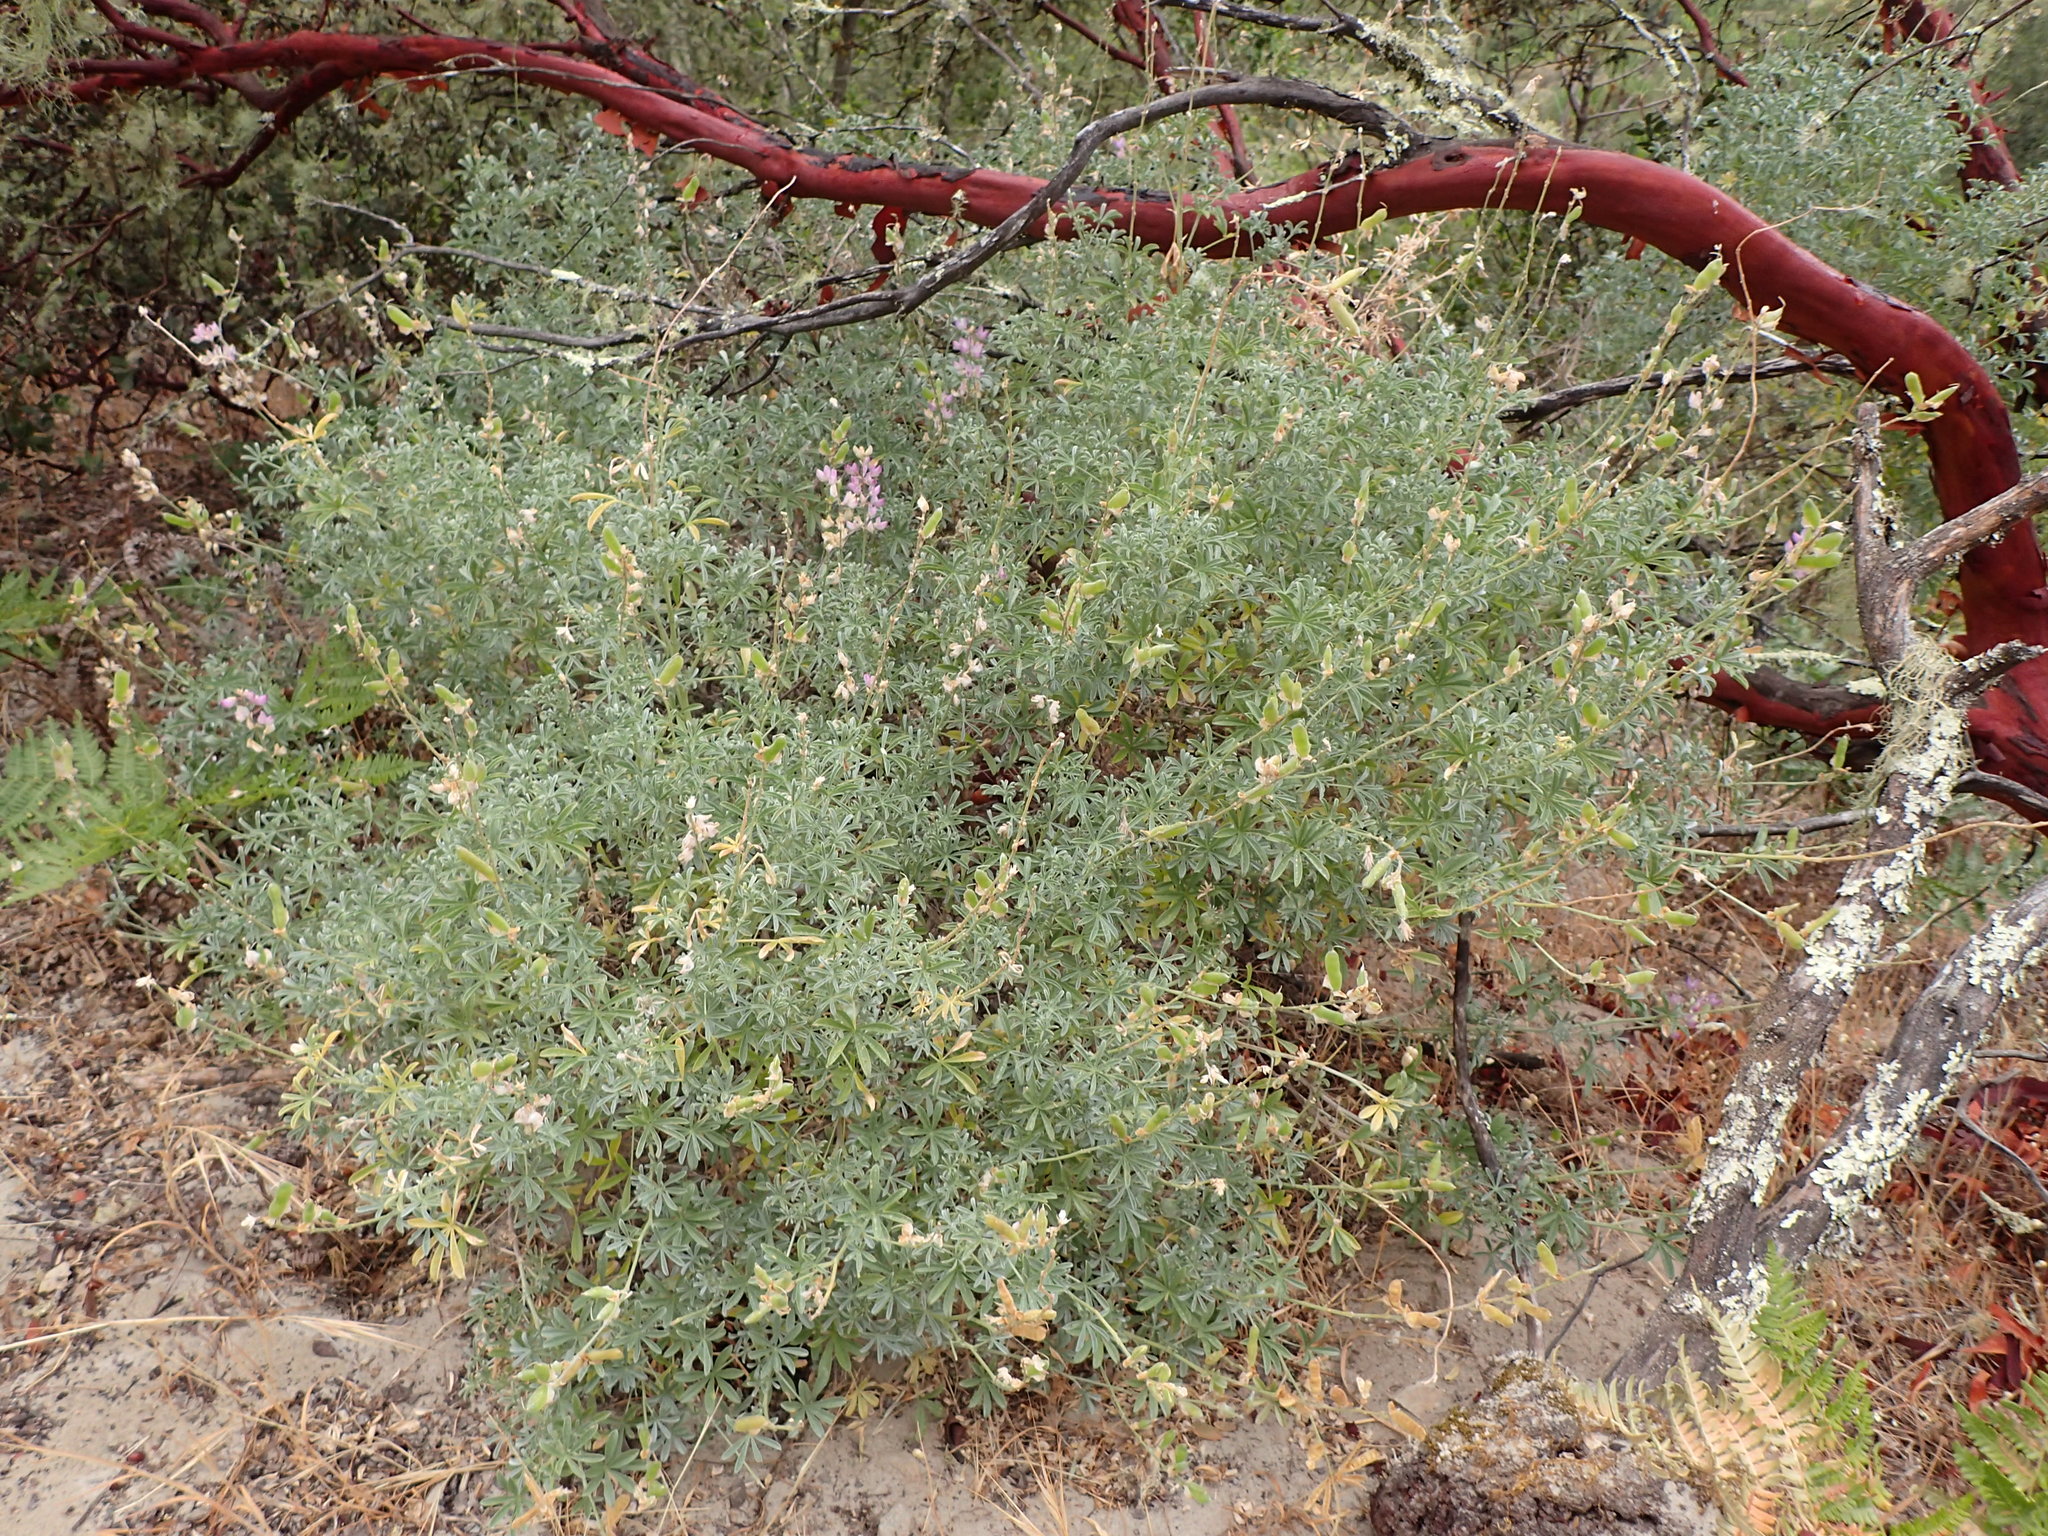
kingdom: Plantae
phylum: Tracheophyta
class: Magnoliopsida
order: Fabales
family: Fabaceae
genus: Lupinus
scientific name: Lupinus albifrons
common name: Foothill lupine
